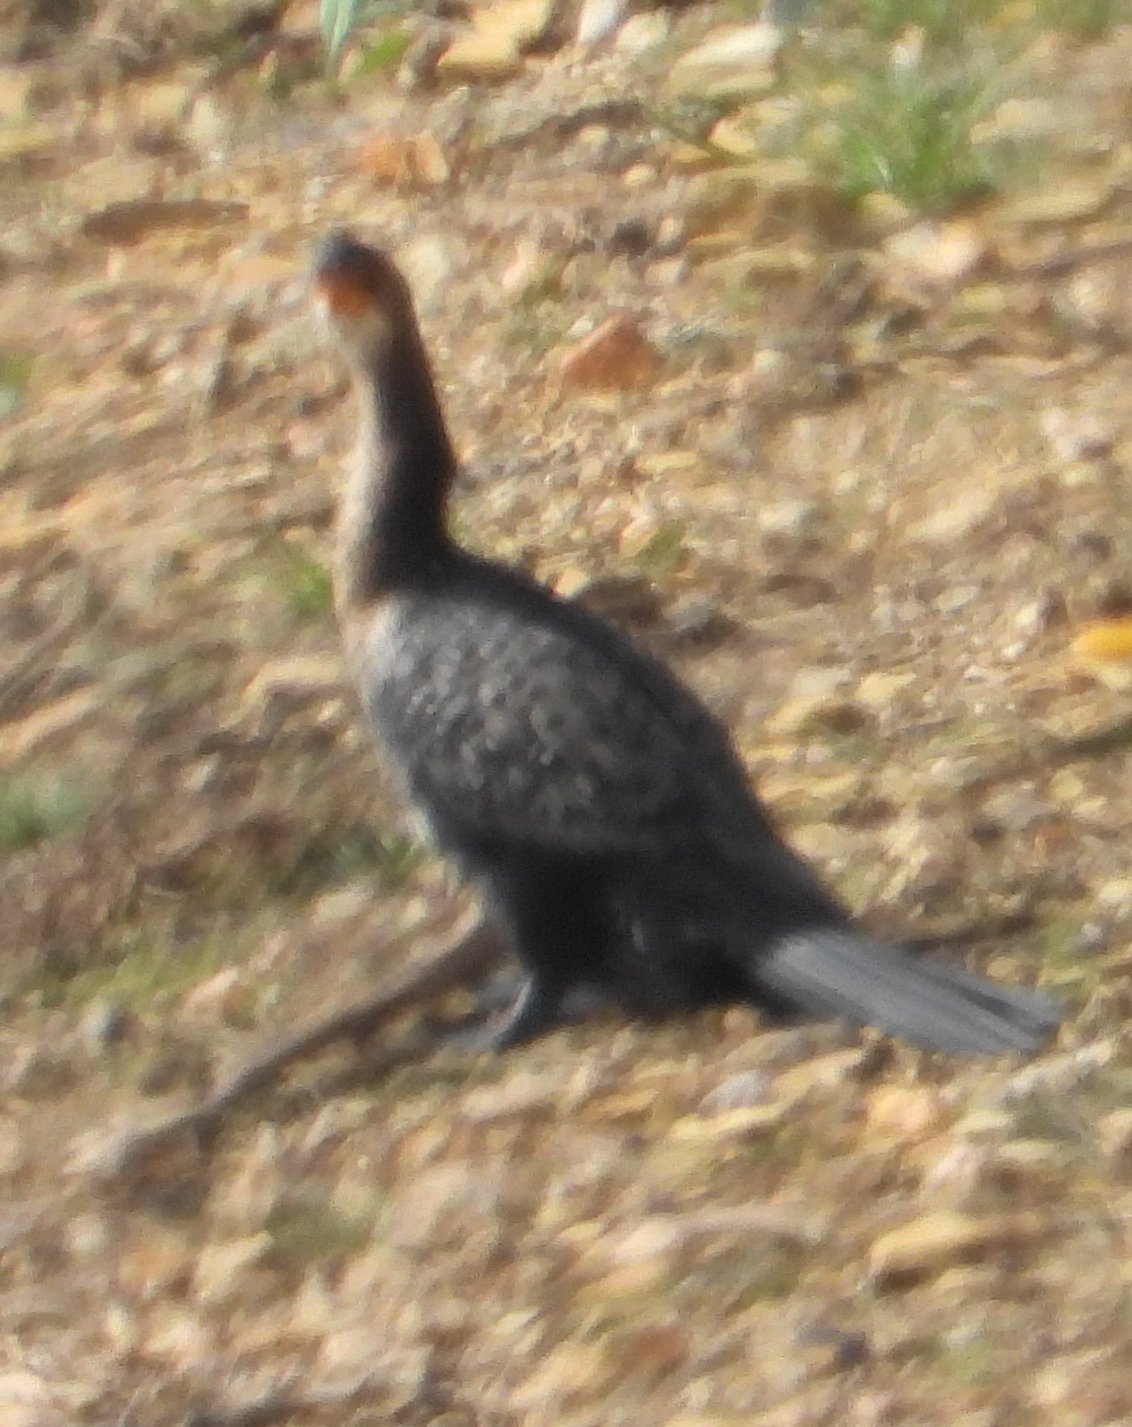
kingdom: Animalia
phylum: Chordata
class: Aves
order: Suliformes
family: Phalacrocoracidae
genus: Microcarbo
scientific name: Microcarbo africanus
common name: Long-tailed cormorant
